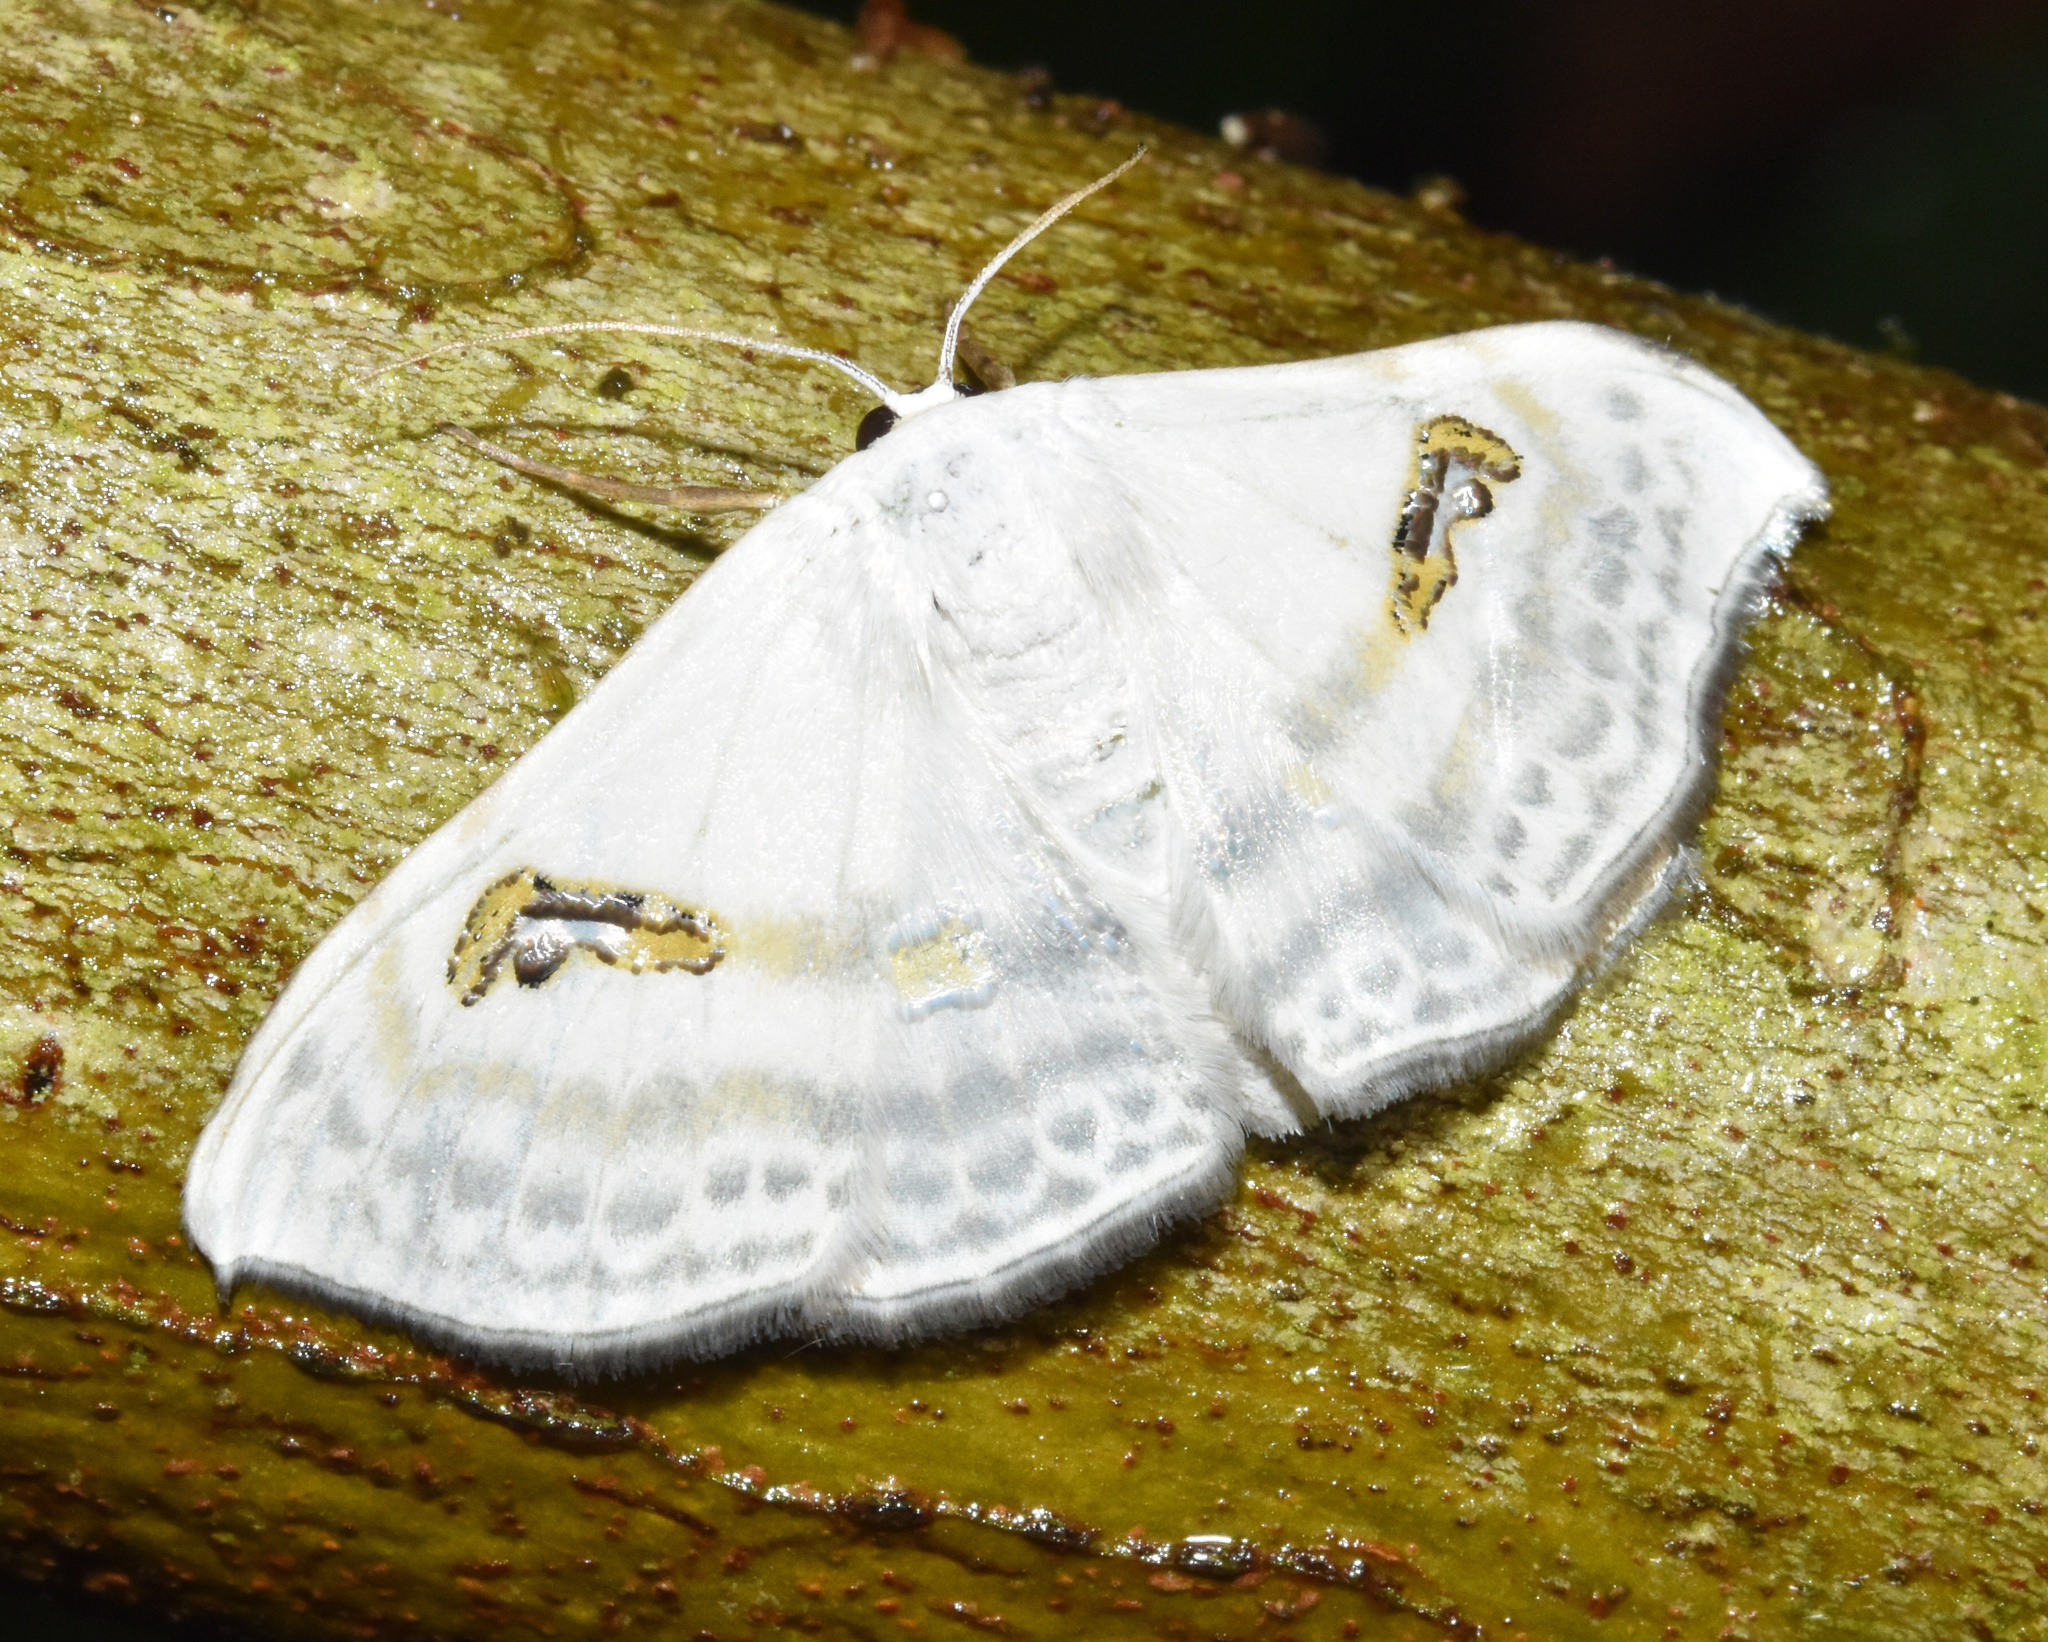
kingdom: Animalia
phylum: Arthropoda
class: Insecta
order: Lepidoptera
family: Geometridae
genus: Problepsis
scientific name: Problepsis digammata
